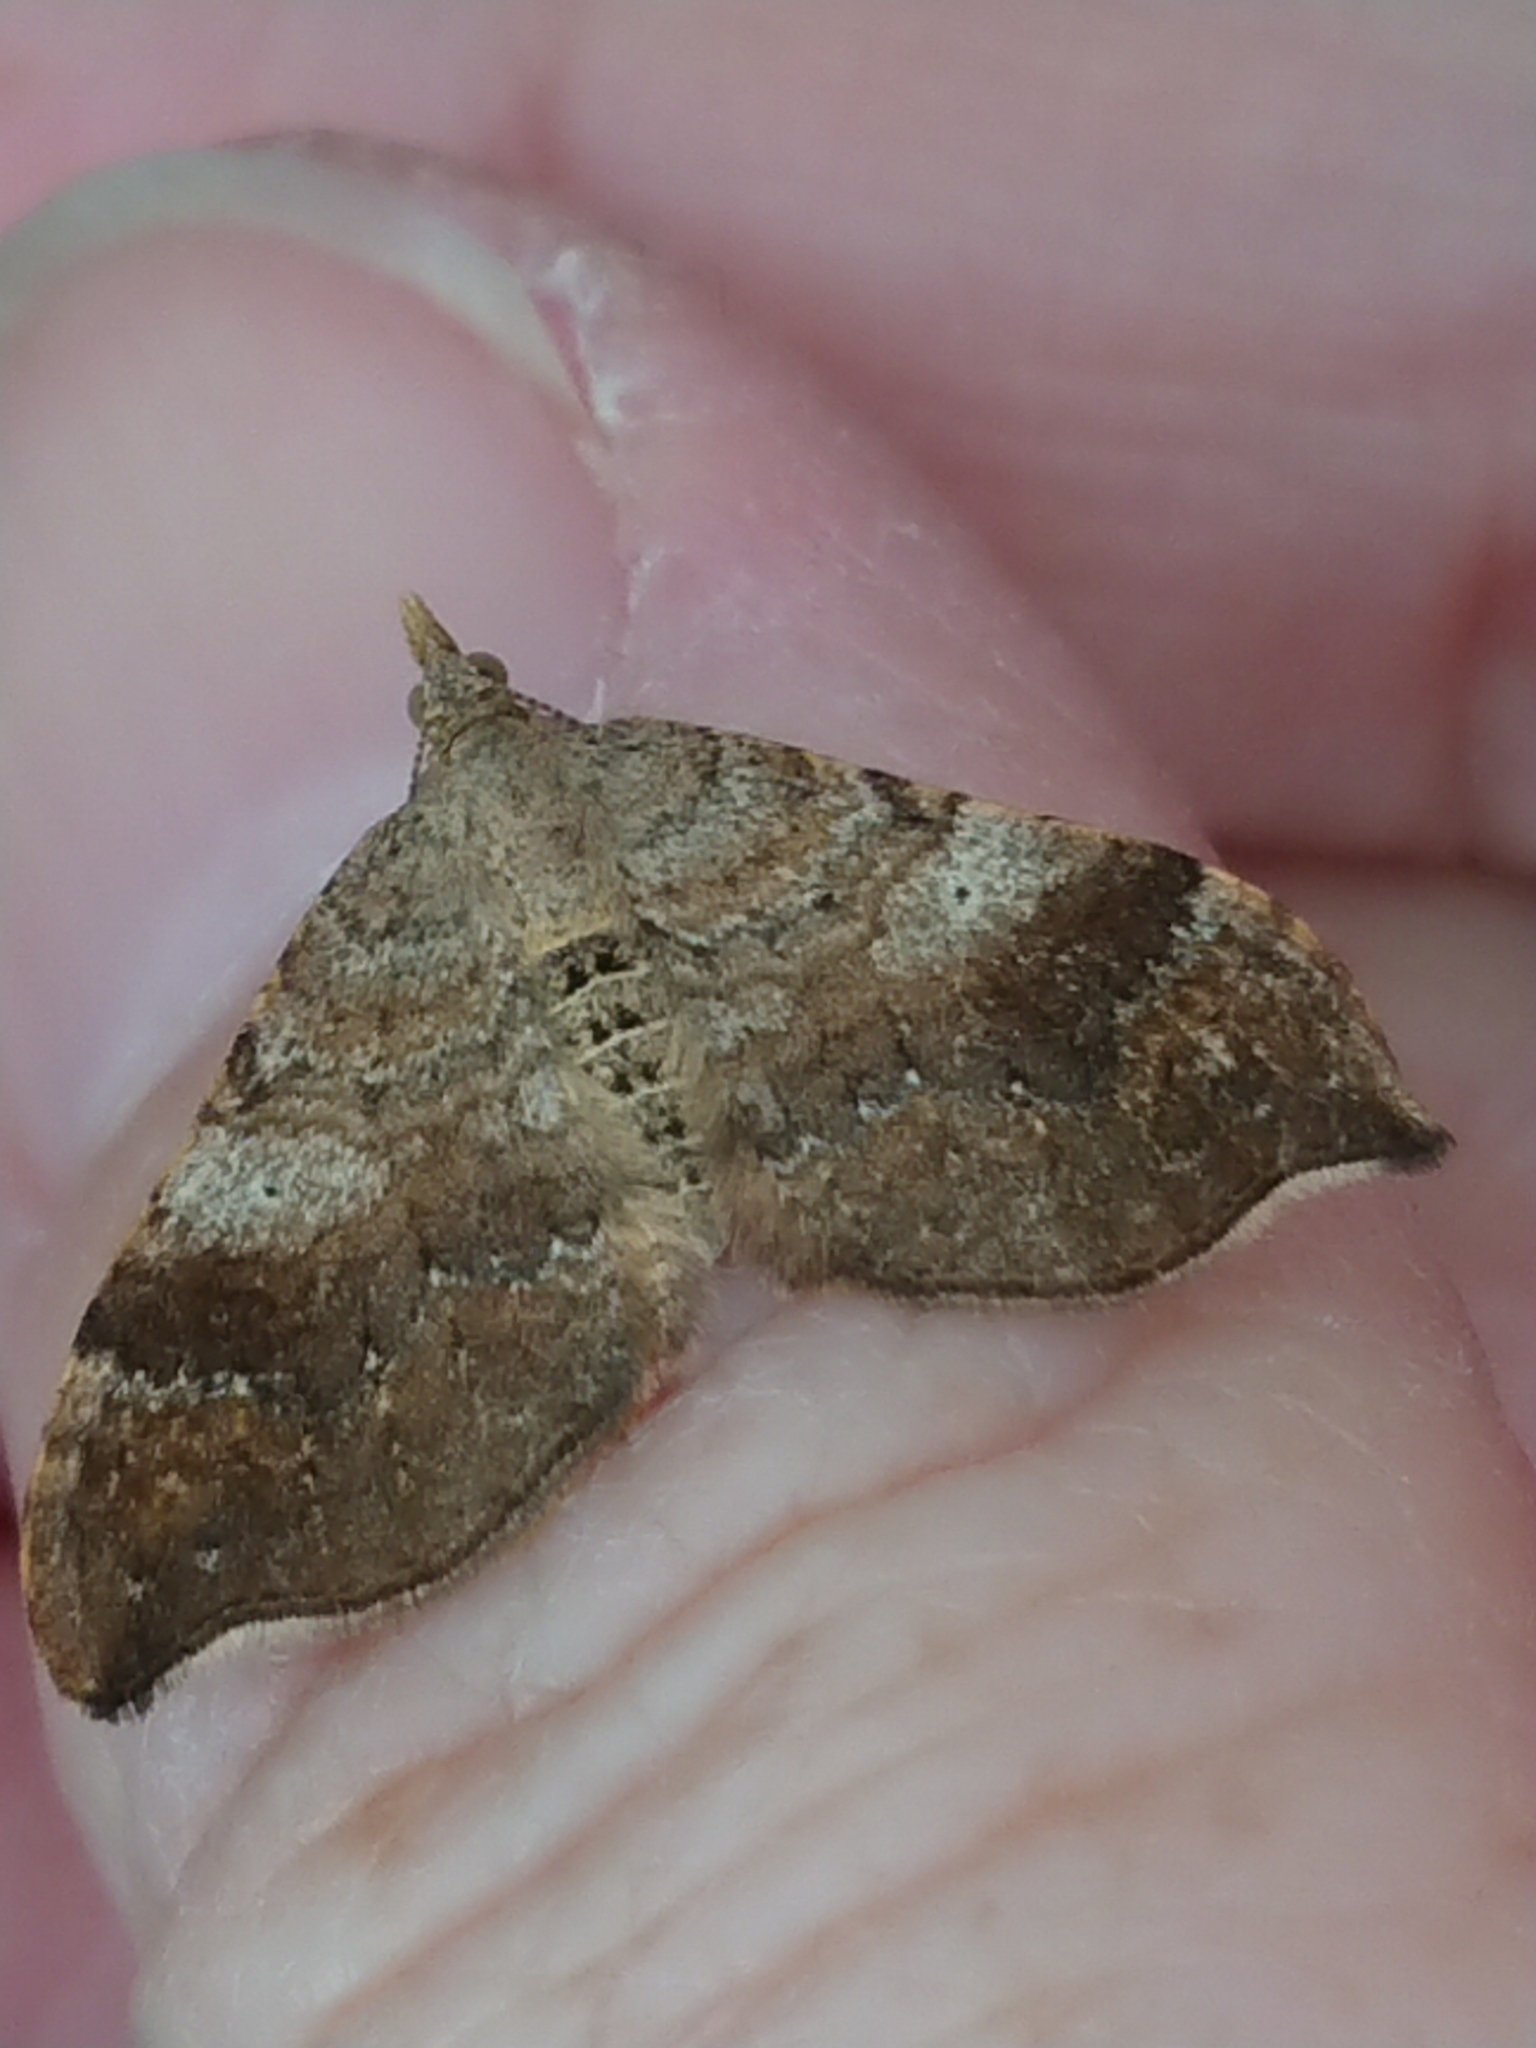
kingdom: Animalia
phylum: Arthropoda
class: Insecta
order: Lepidoptera
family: Geometridae
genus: Homodotis
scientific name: Homodotis megaspilata
